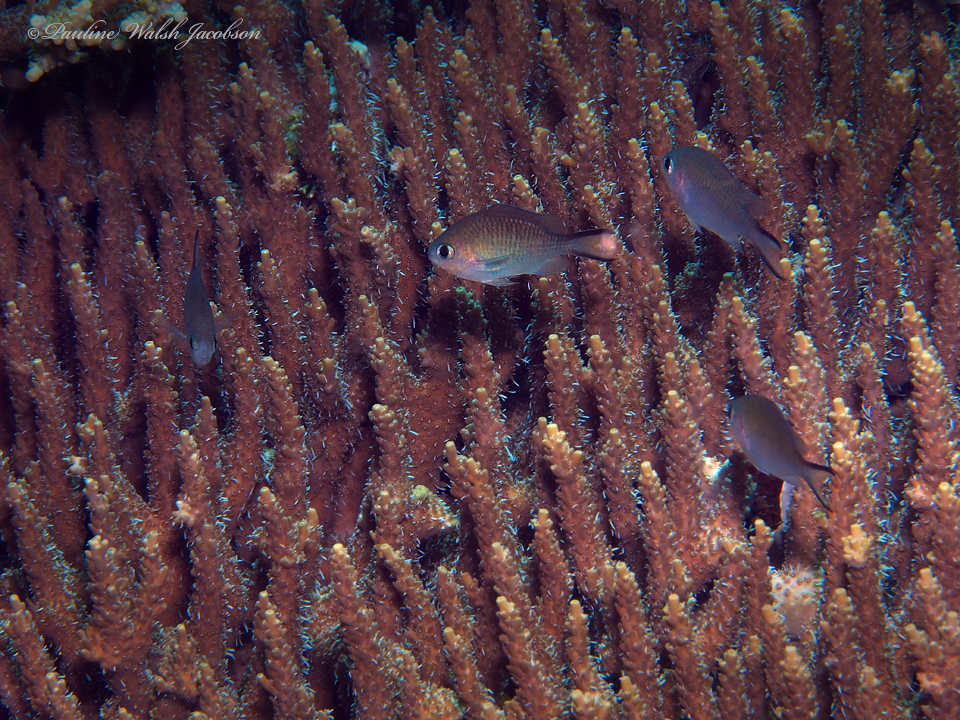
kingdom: Animalia
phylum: Chordata
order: Perciformes
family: Pomacentridae
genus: Chromis
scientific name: Chromis ternatensis
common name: Ternate chromis
